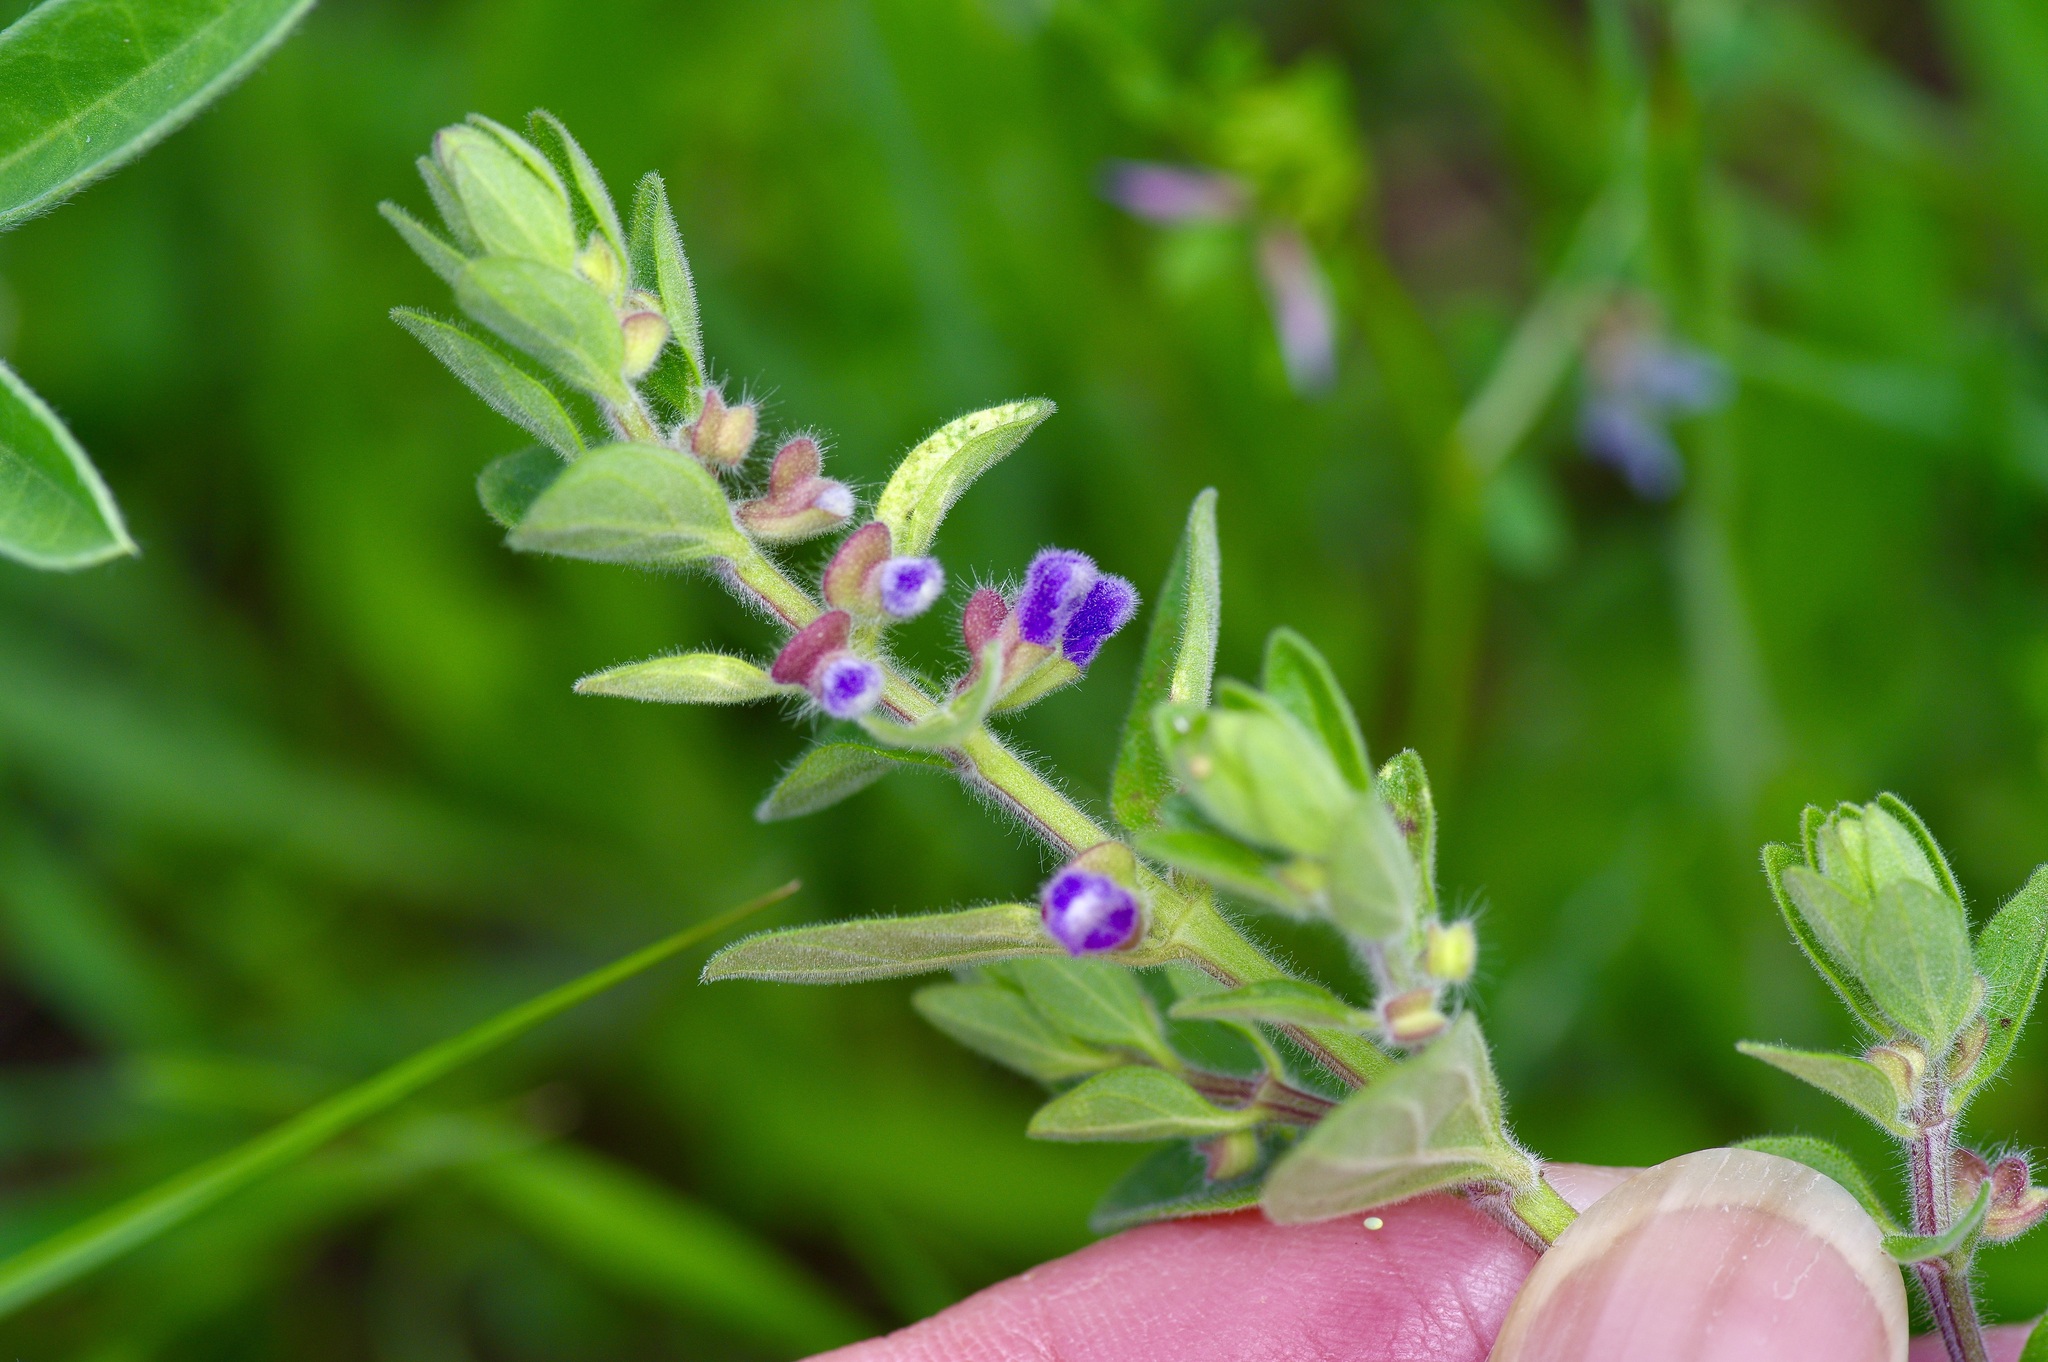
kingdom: Plantae
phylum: Tracheophyta
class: Magnoliopsida
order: Lamiales
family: Lamiaceae
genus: Scutellaria
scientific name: Scutellaria drummondii
